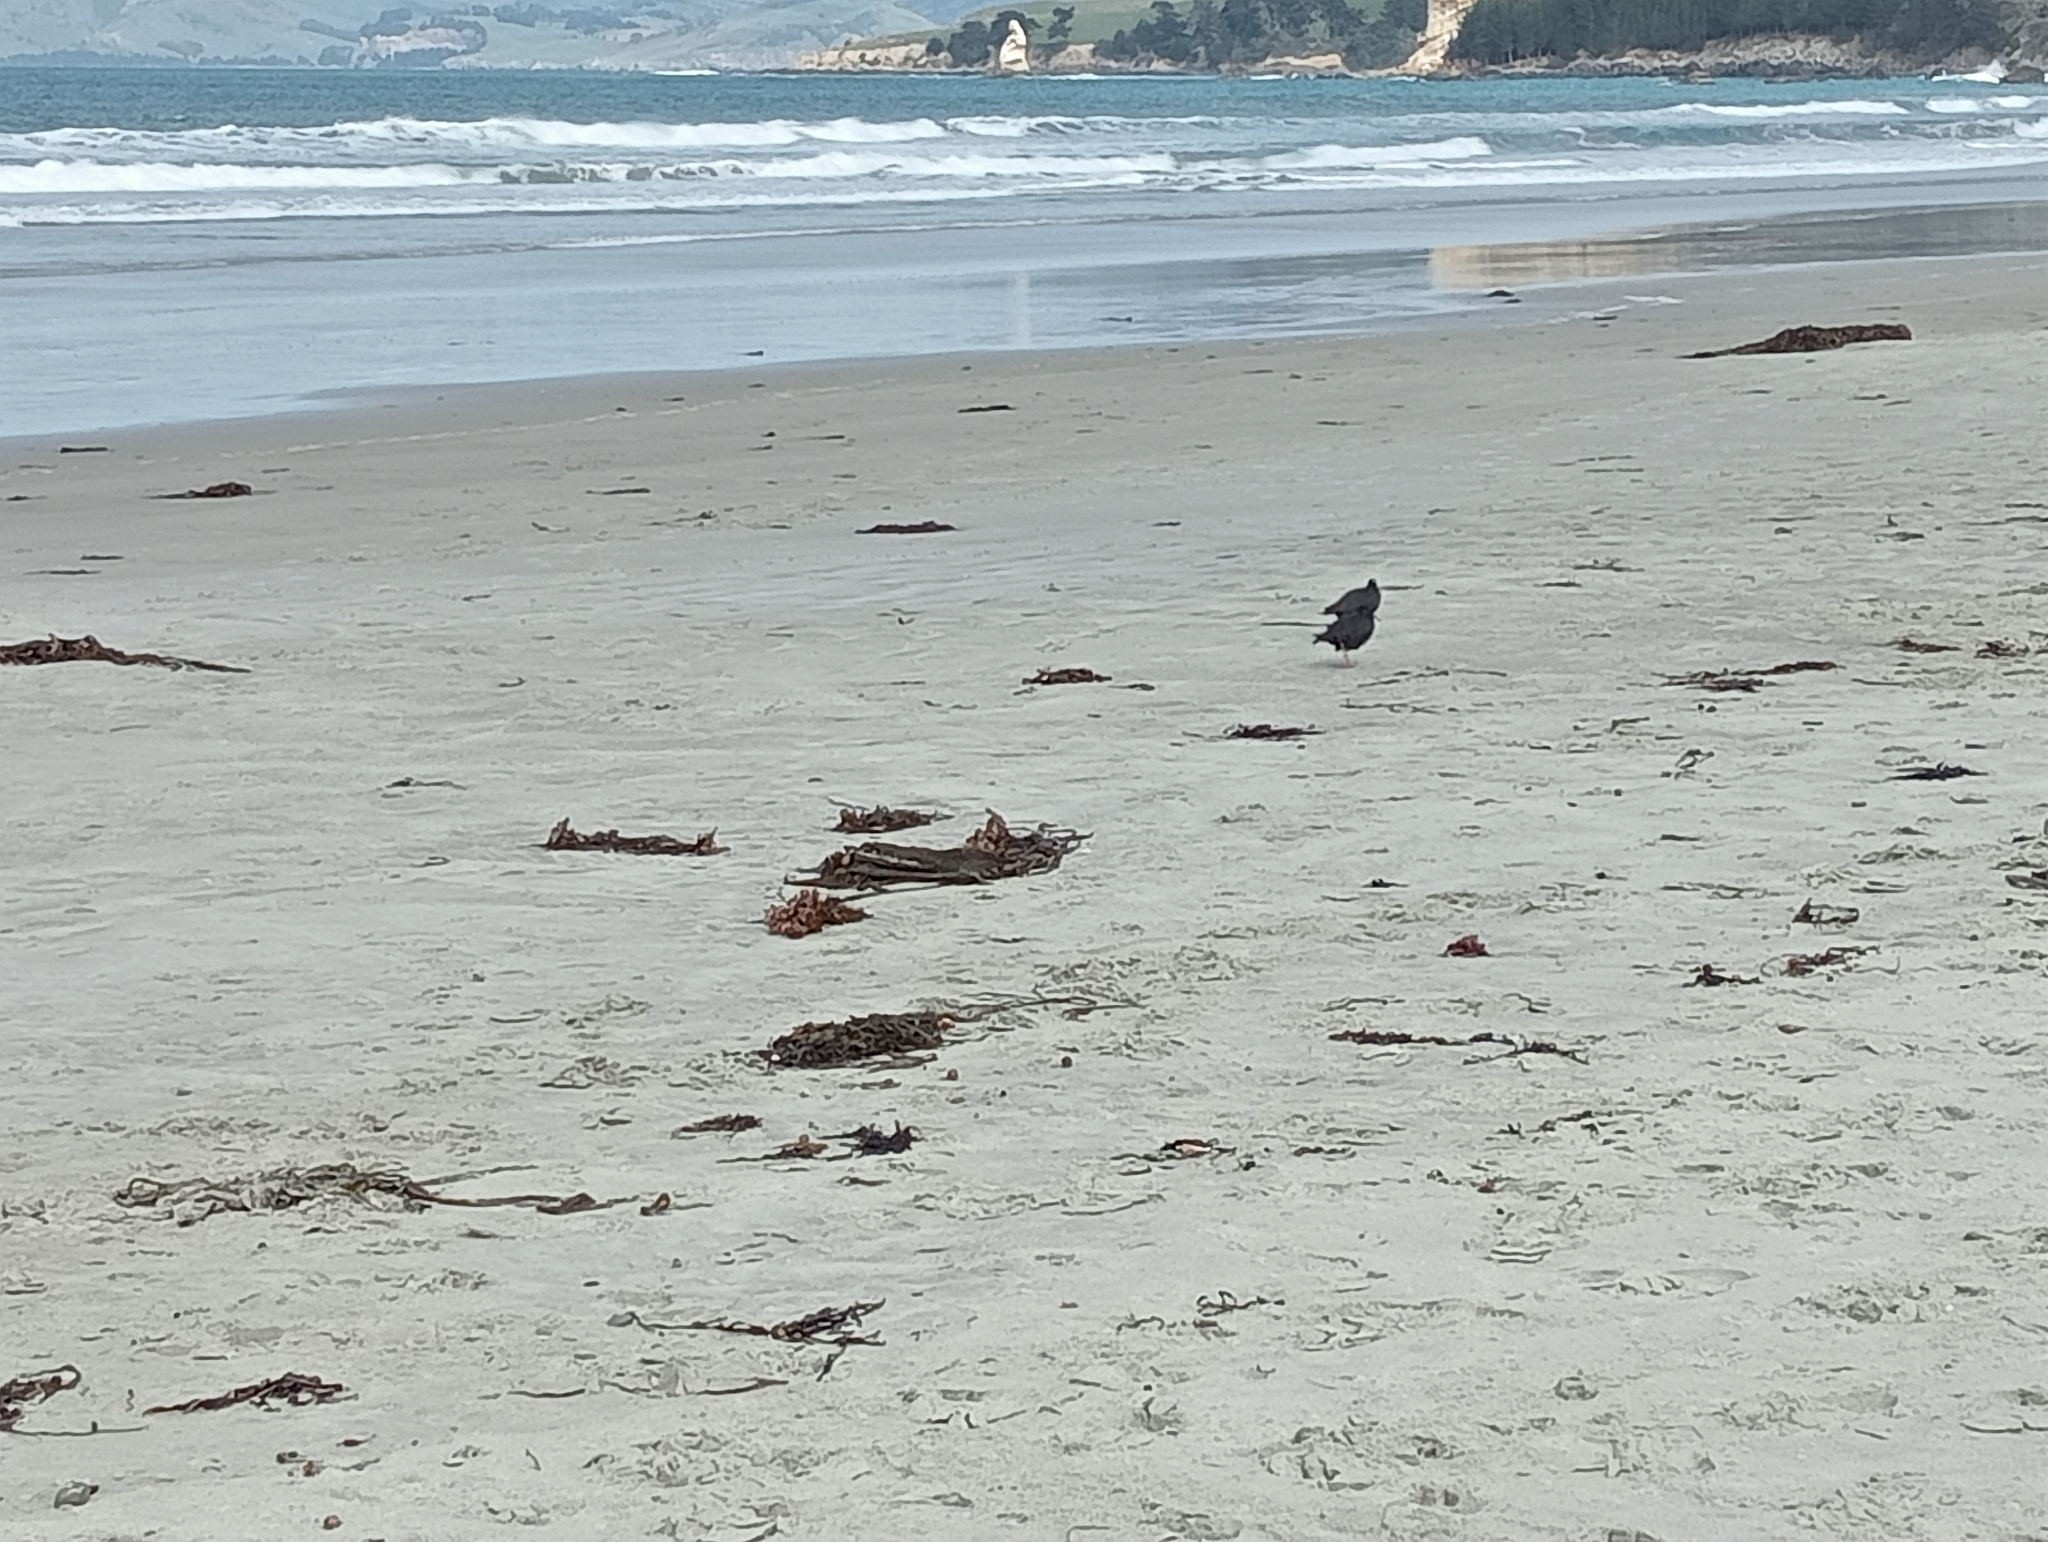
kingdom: Animalia
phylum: Chordata
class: Aves
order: Charadriiformes
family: Haematopodidae
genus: Haematopus
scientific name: Haematopus unicolor
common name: Variable oystercatcher
